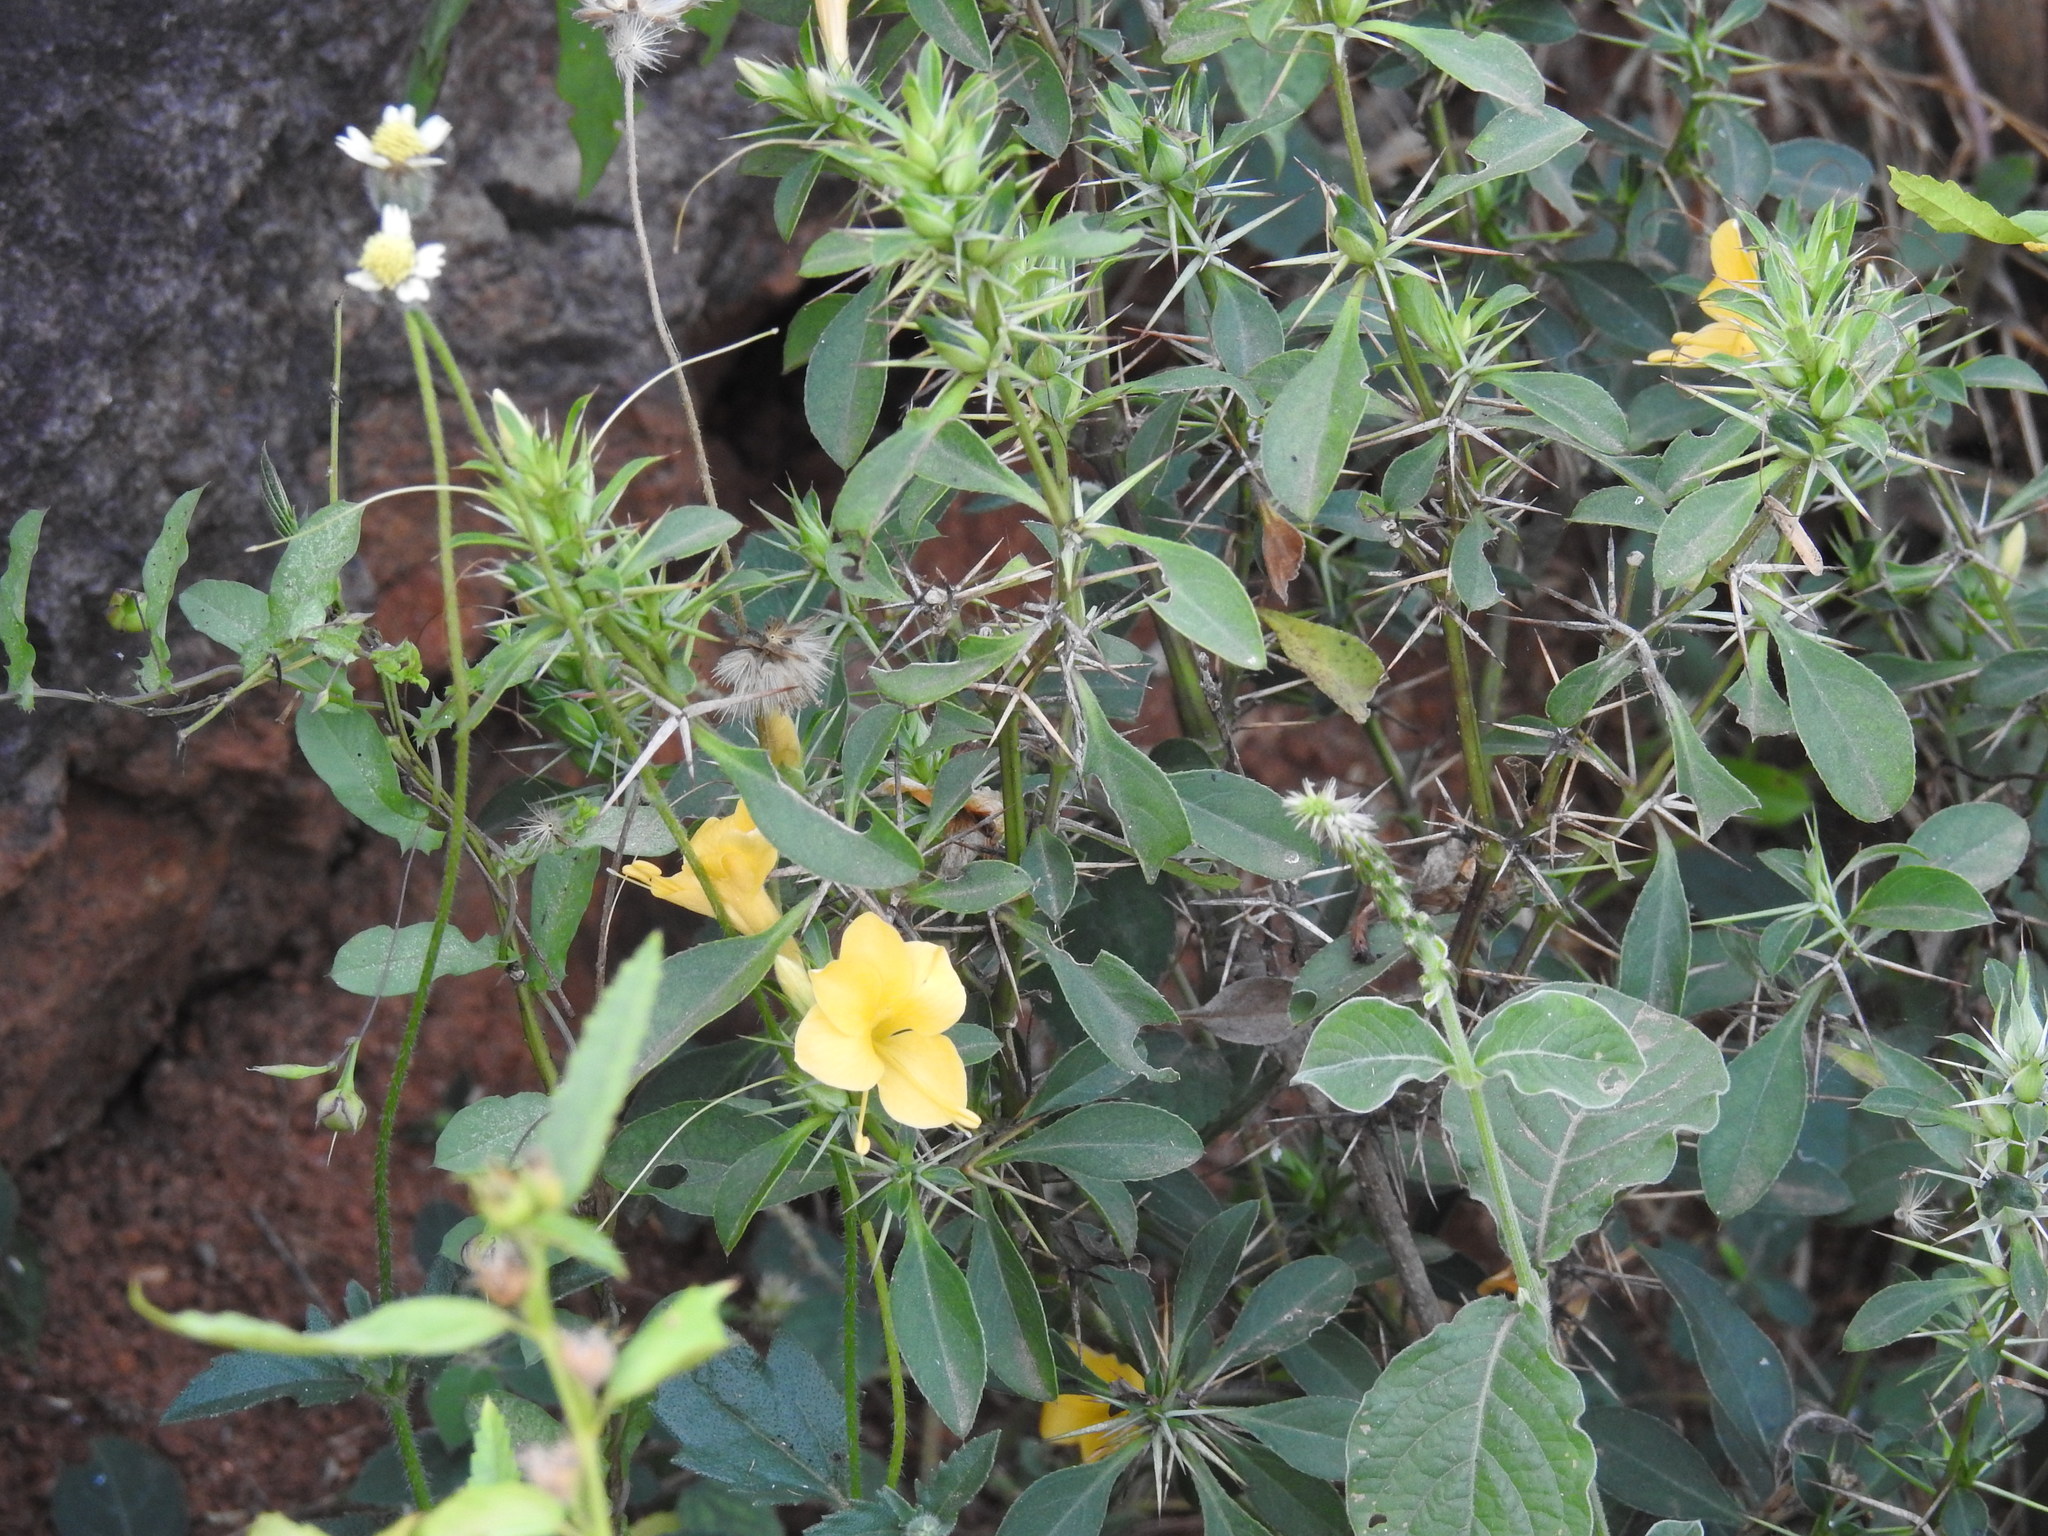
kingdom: Plantae
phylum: Tracheophyta
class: Magnoliopsida
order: Lamiales
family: Acanthaceae
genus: Barleria
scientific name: Barleria prionitis
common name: Barleria
